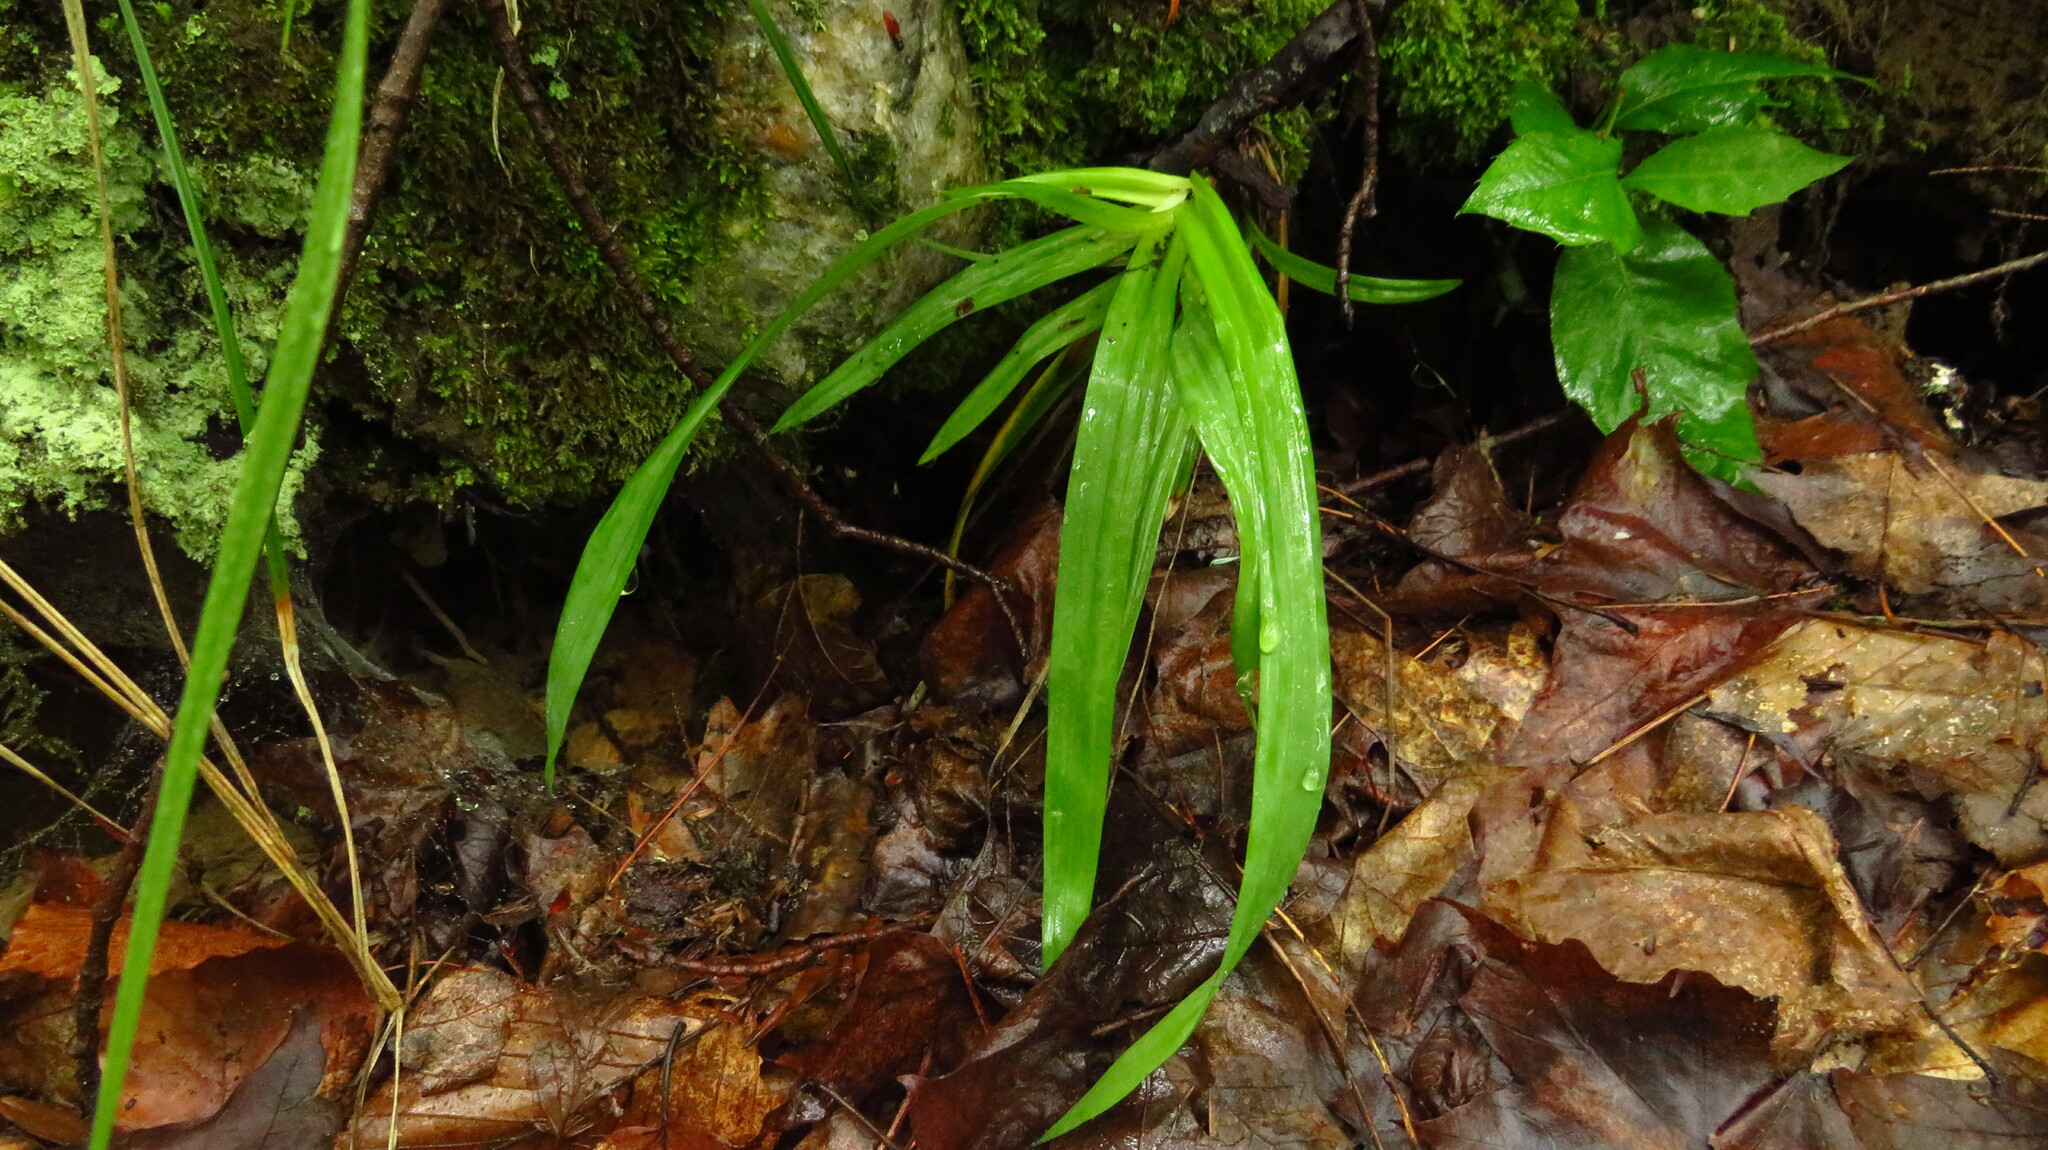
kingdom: Plantae
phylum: Tracheophyta
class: Liliopsida
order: Poales
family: Cyperaceae
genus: Carex
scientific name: Carex
